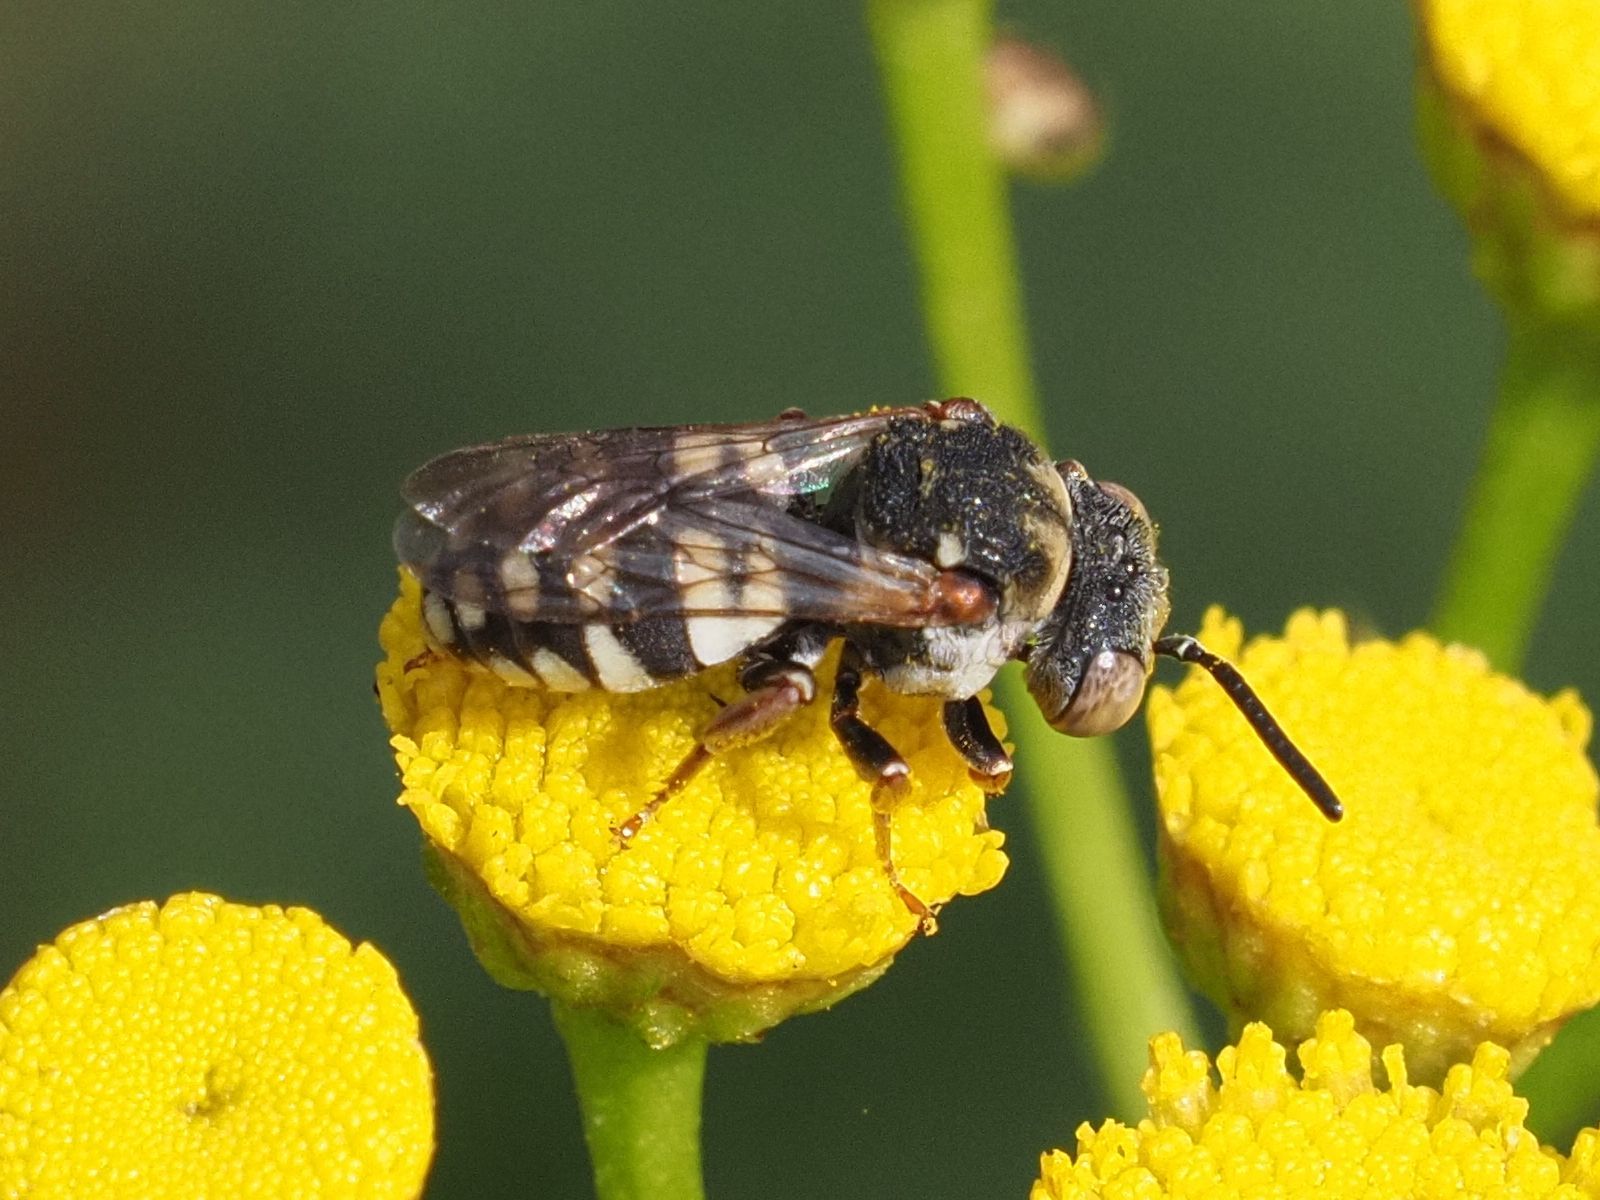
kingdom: Animalia
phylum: Arthropoda
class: Insecta
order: Hymenoptera
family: Apidae
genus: Epeolus
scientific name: Epeolus variegatus
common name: Black-thighed epeolus
